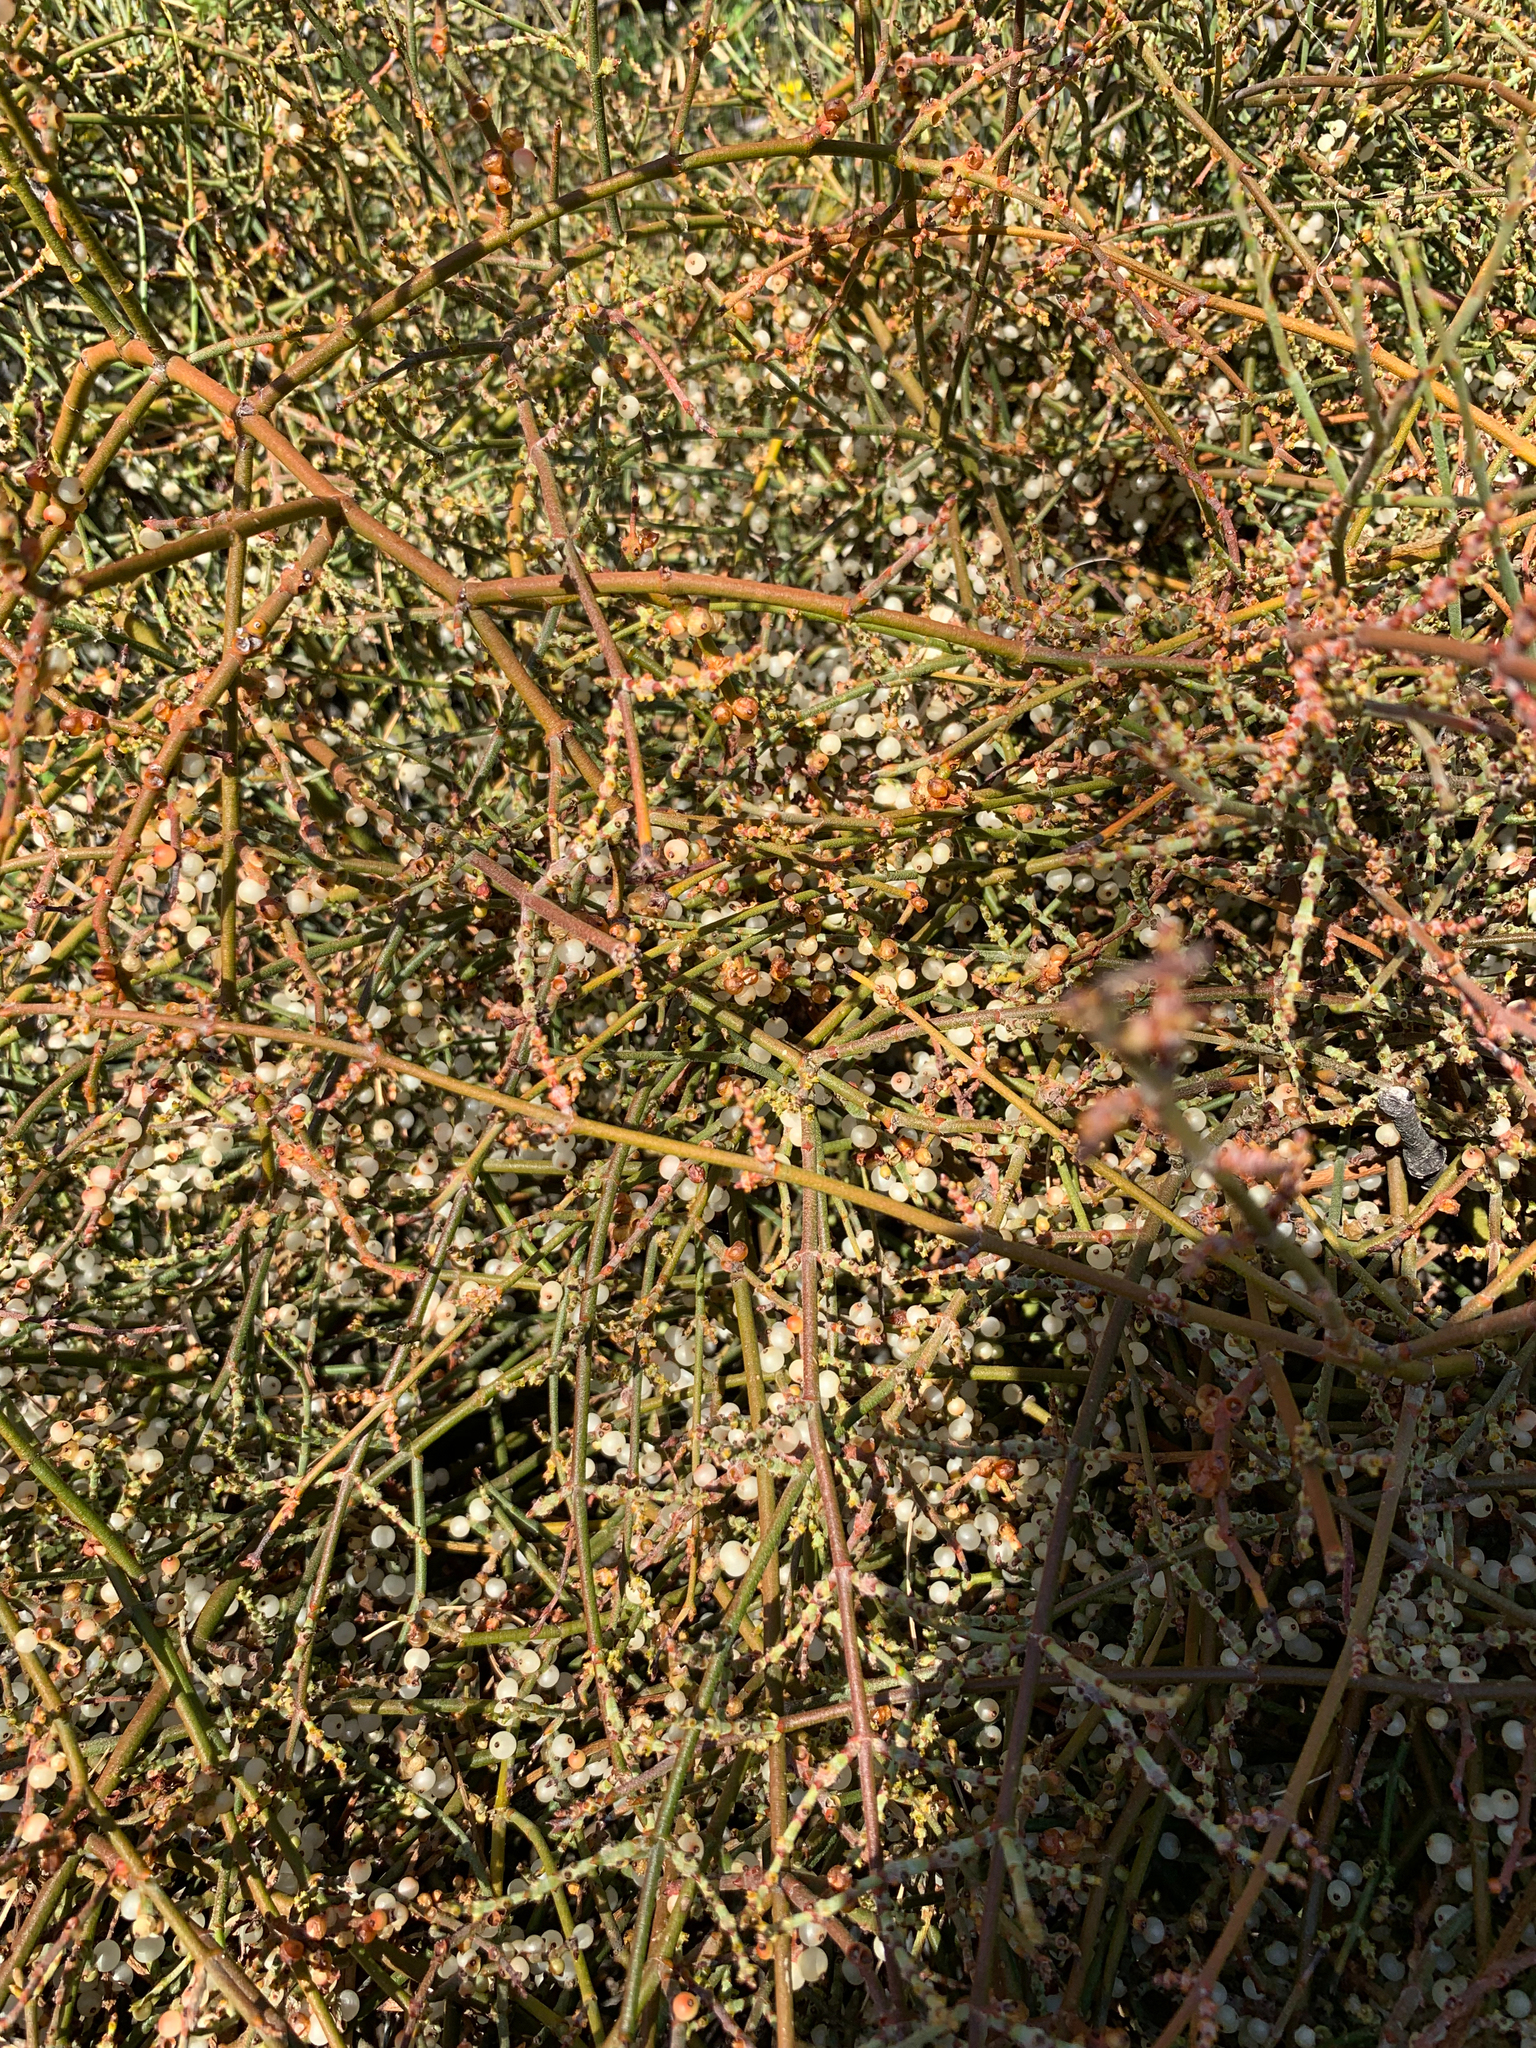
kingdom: Plantae
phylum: Tracheophyta
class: Magnoliopsida
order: Santalales
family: Viscaceae
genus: Phoradendron
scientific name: Phoradendron californicum
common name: Acacia mistletoe
